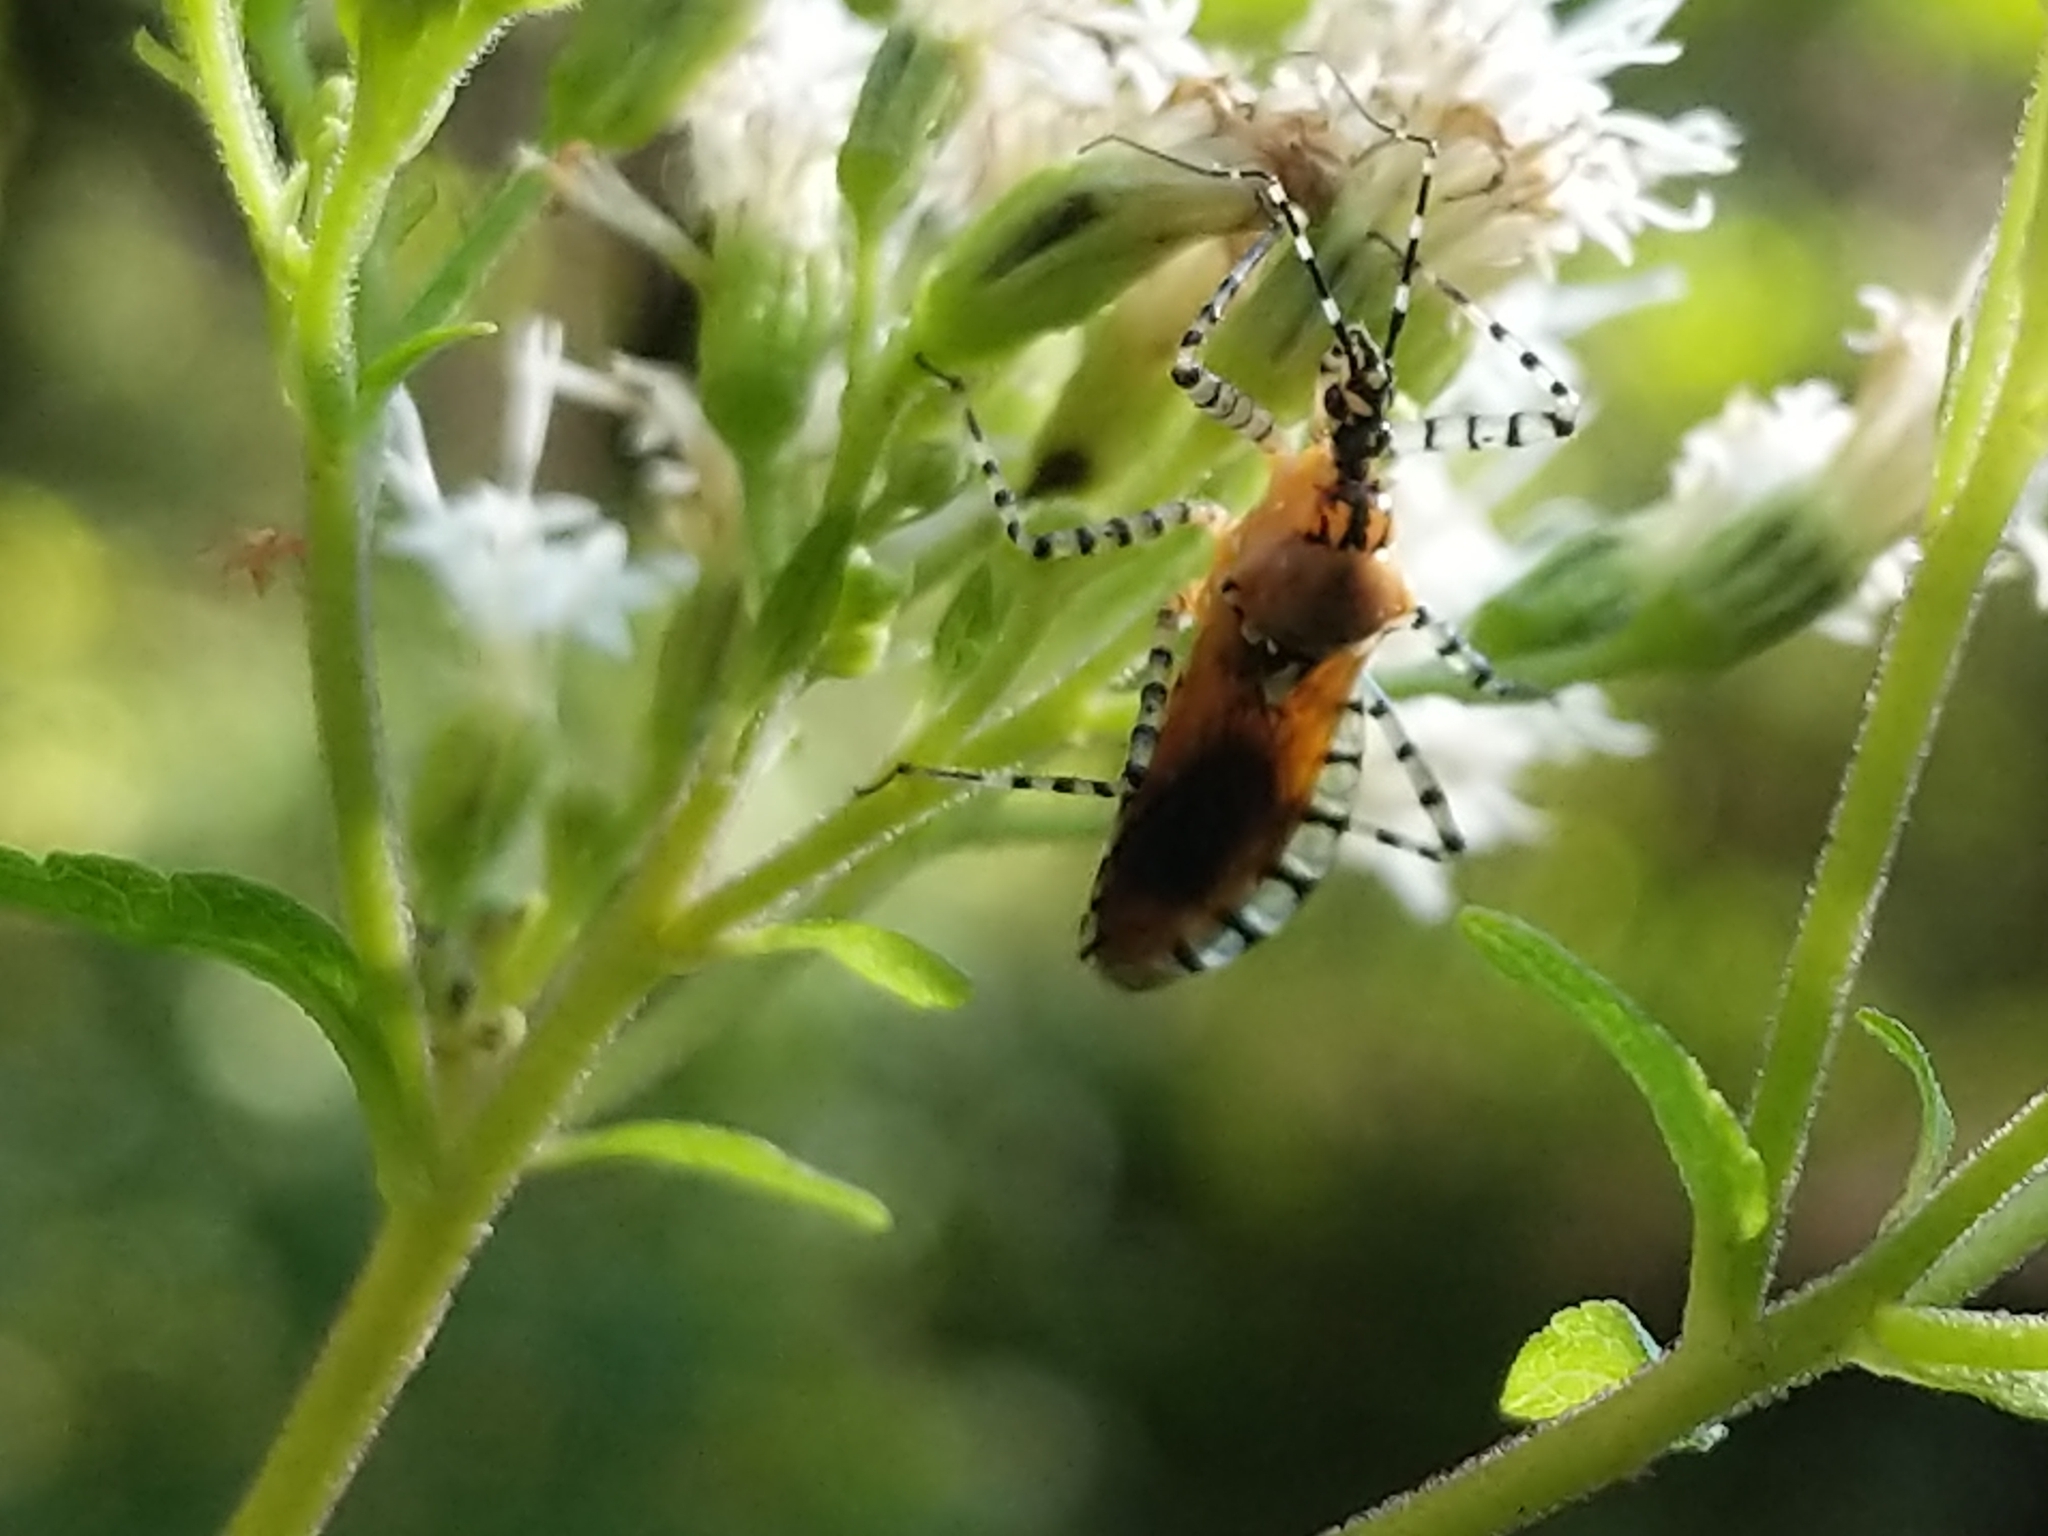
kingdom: Animalia
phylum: Arthropoda
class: Insecta
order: Hemiptera
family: Reduviidae
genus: Pselliopus
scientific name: Pselliopus cinctus
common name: Ringed assassin bug
